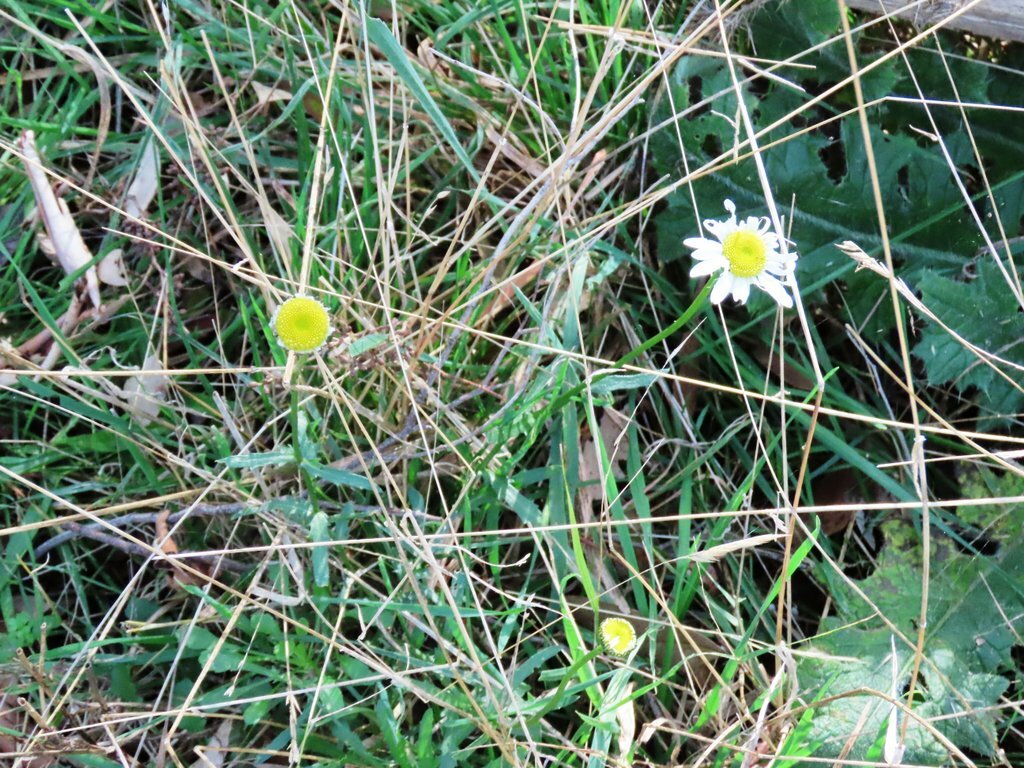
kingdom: Plantae
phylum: Tracheophyta
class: Magnoliopsida
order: Asterales
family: Asteraceae
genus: Leucanthemum
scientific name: Leucanthemum vulgare
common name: Oxeye daisy
